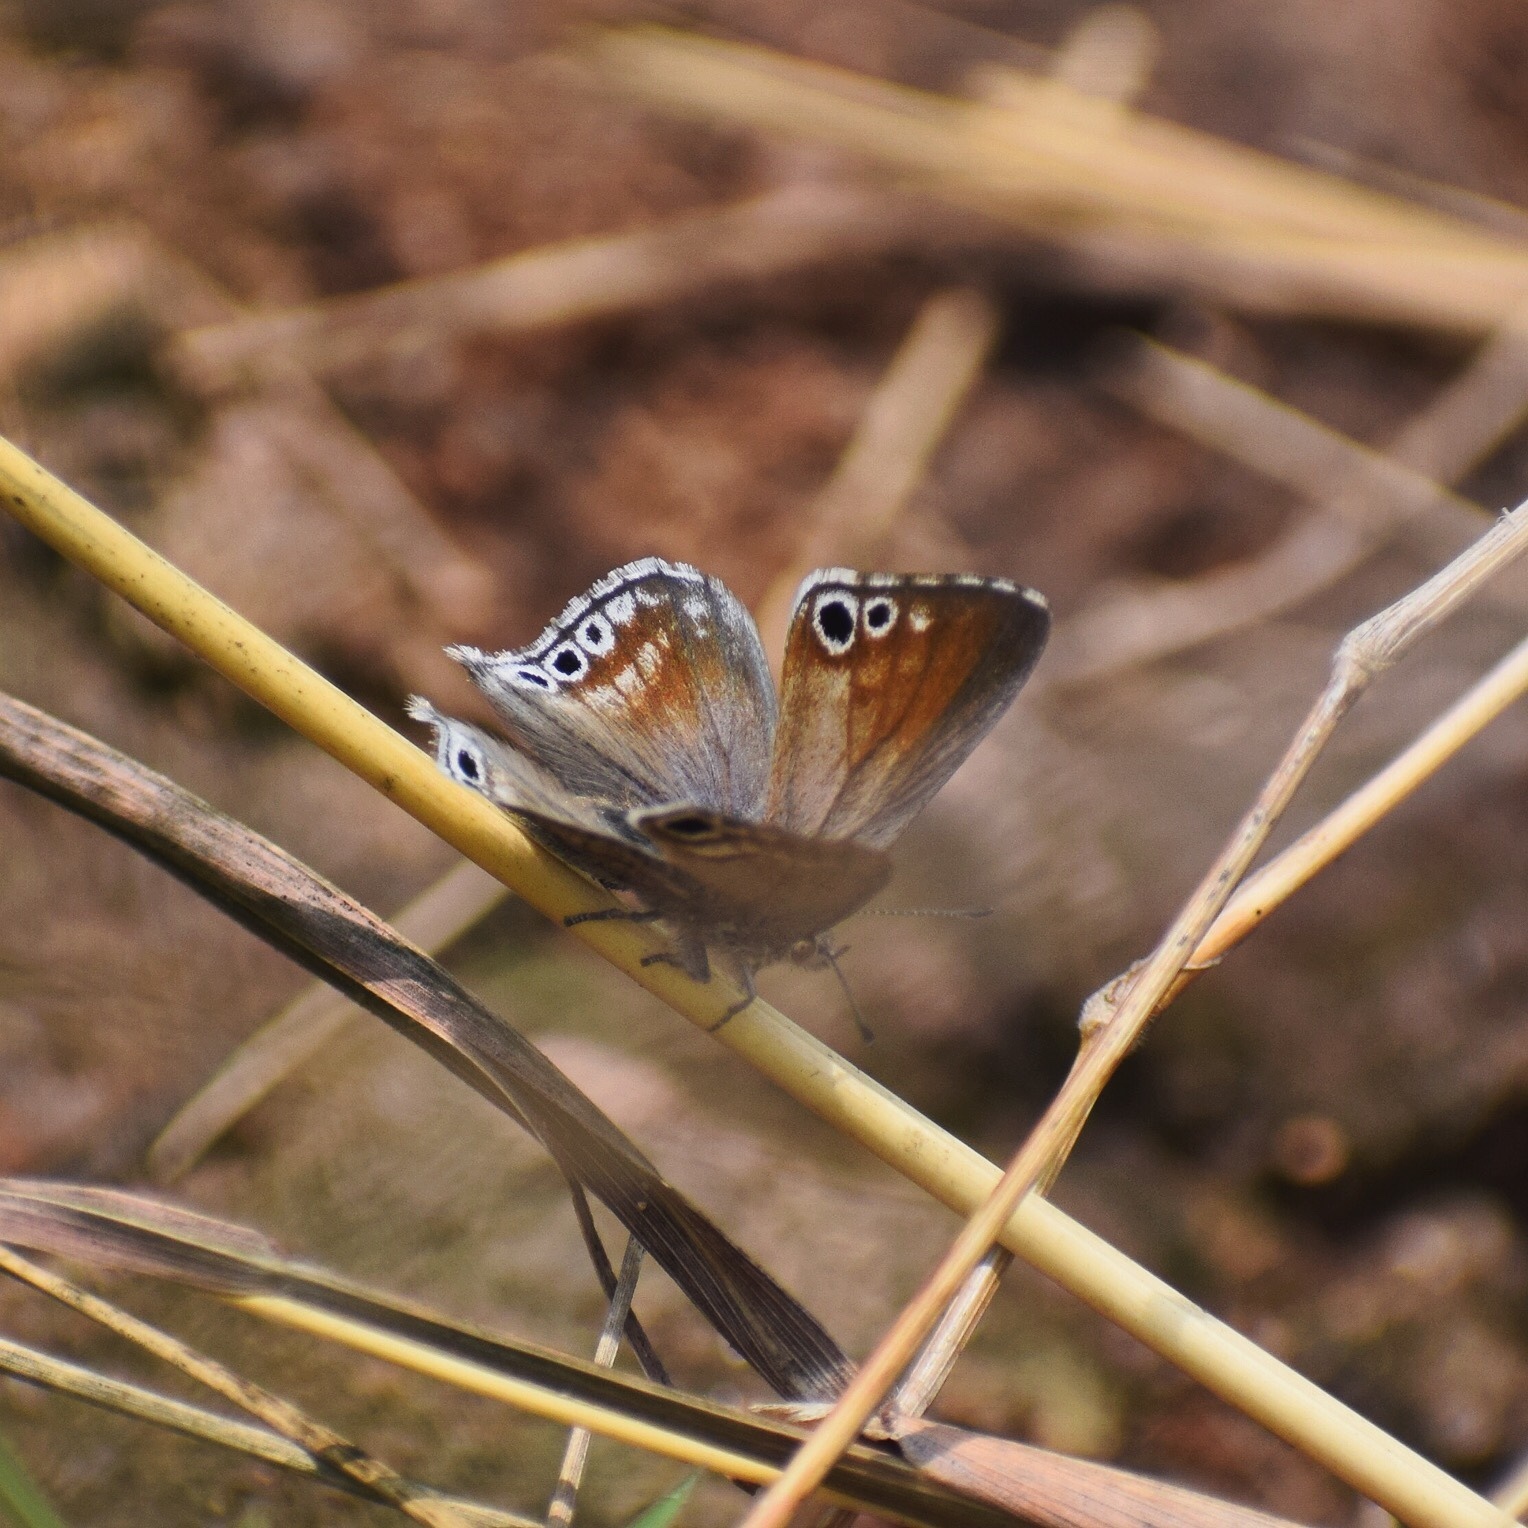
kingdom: Animalia
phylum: Arthropoda
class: Insecta
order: Lepidoptera
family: Lycaenidae
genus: Leptomyrina
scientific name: Leptomyrina gorgias
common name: Common black-eye
